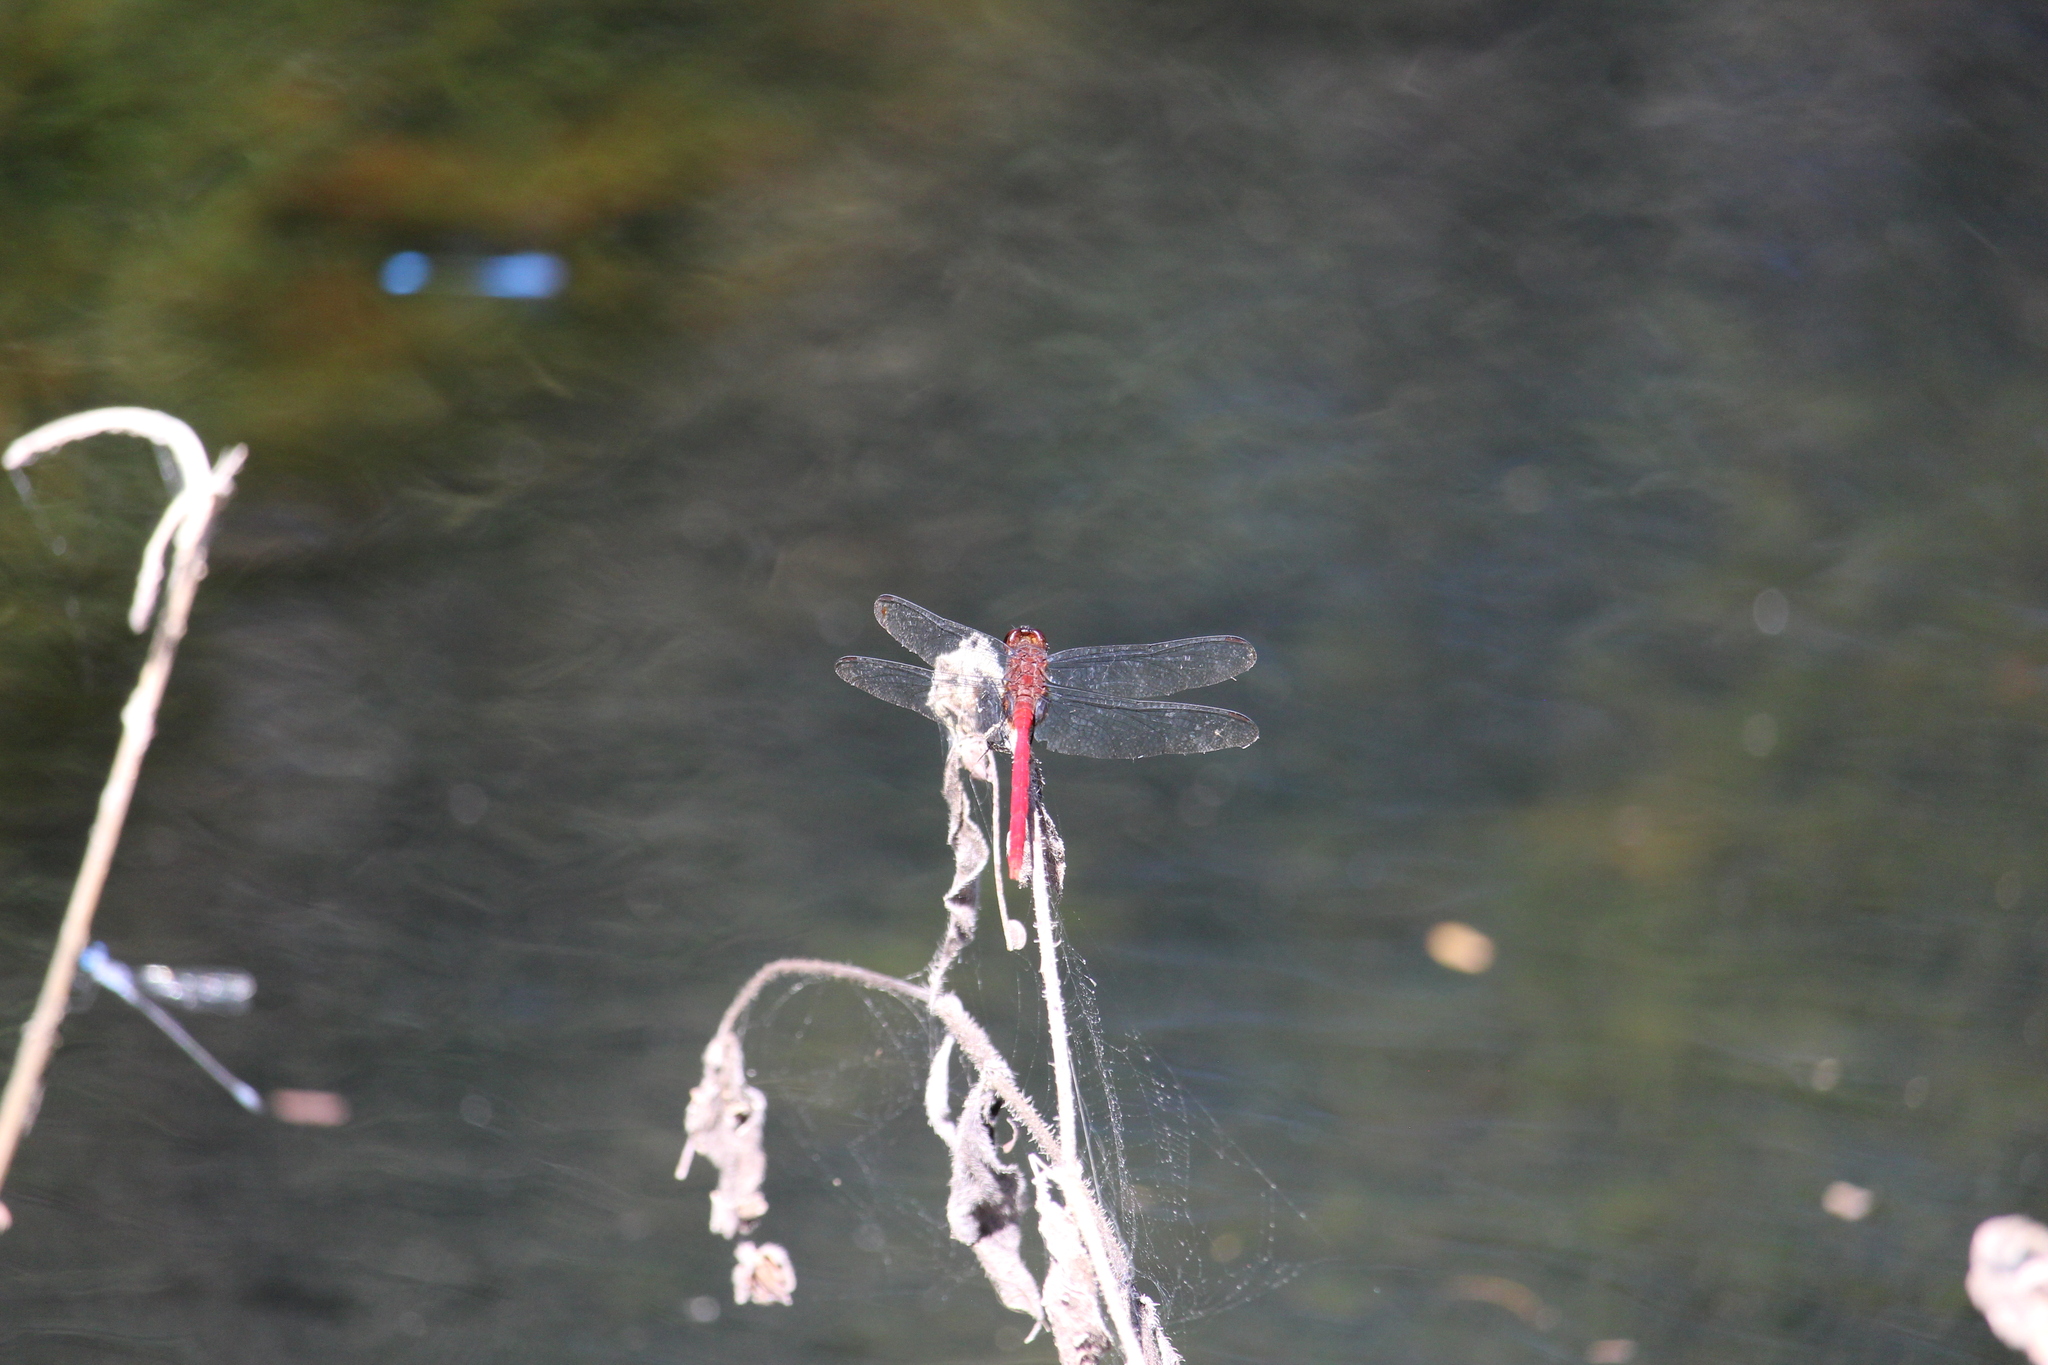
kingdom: Animalia
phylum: Arthropoda
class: Insecta
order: Odonata
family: Libellulidae
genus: Orthemis
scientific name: Orthemis discolor
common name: Carmine skimmer
